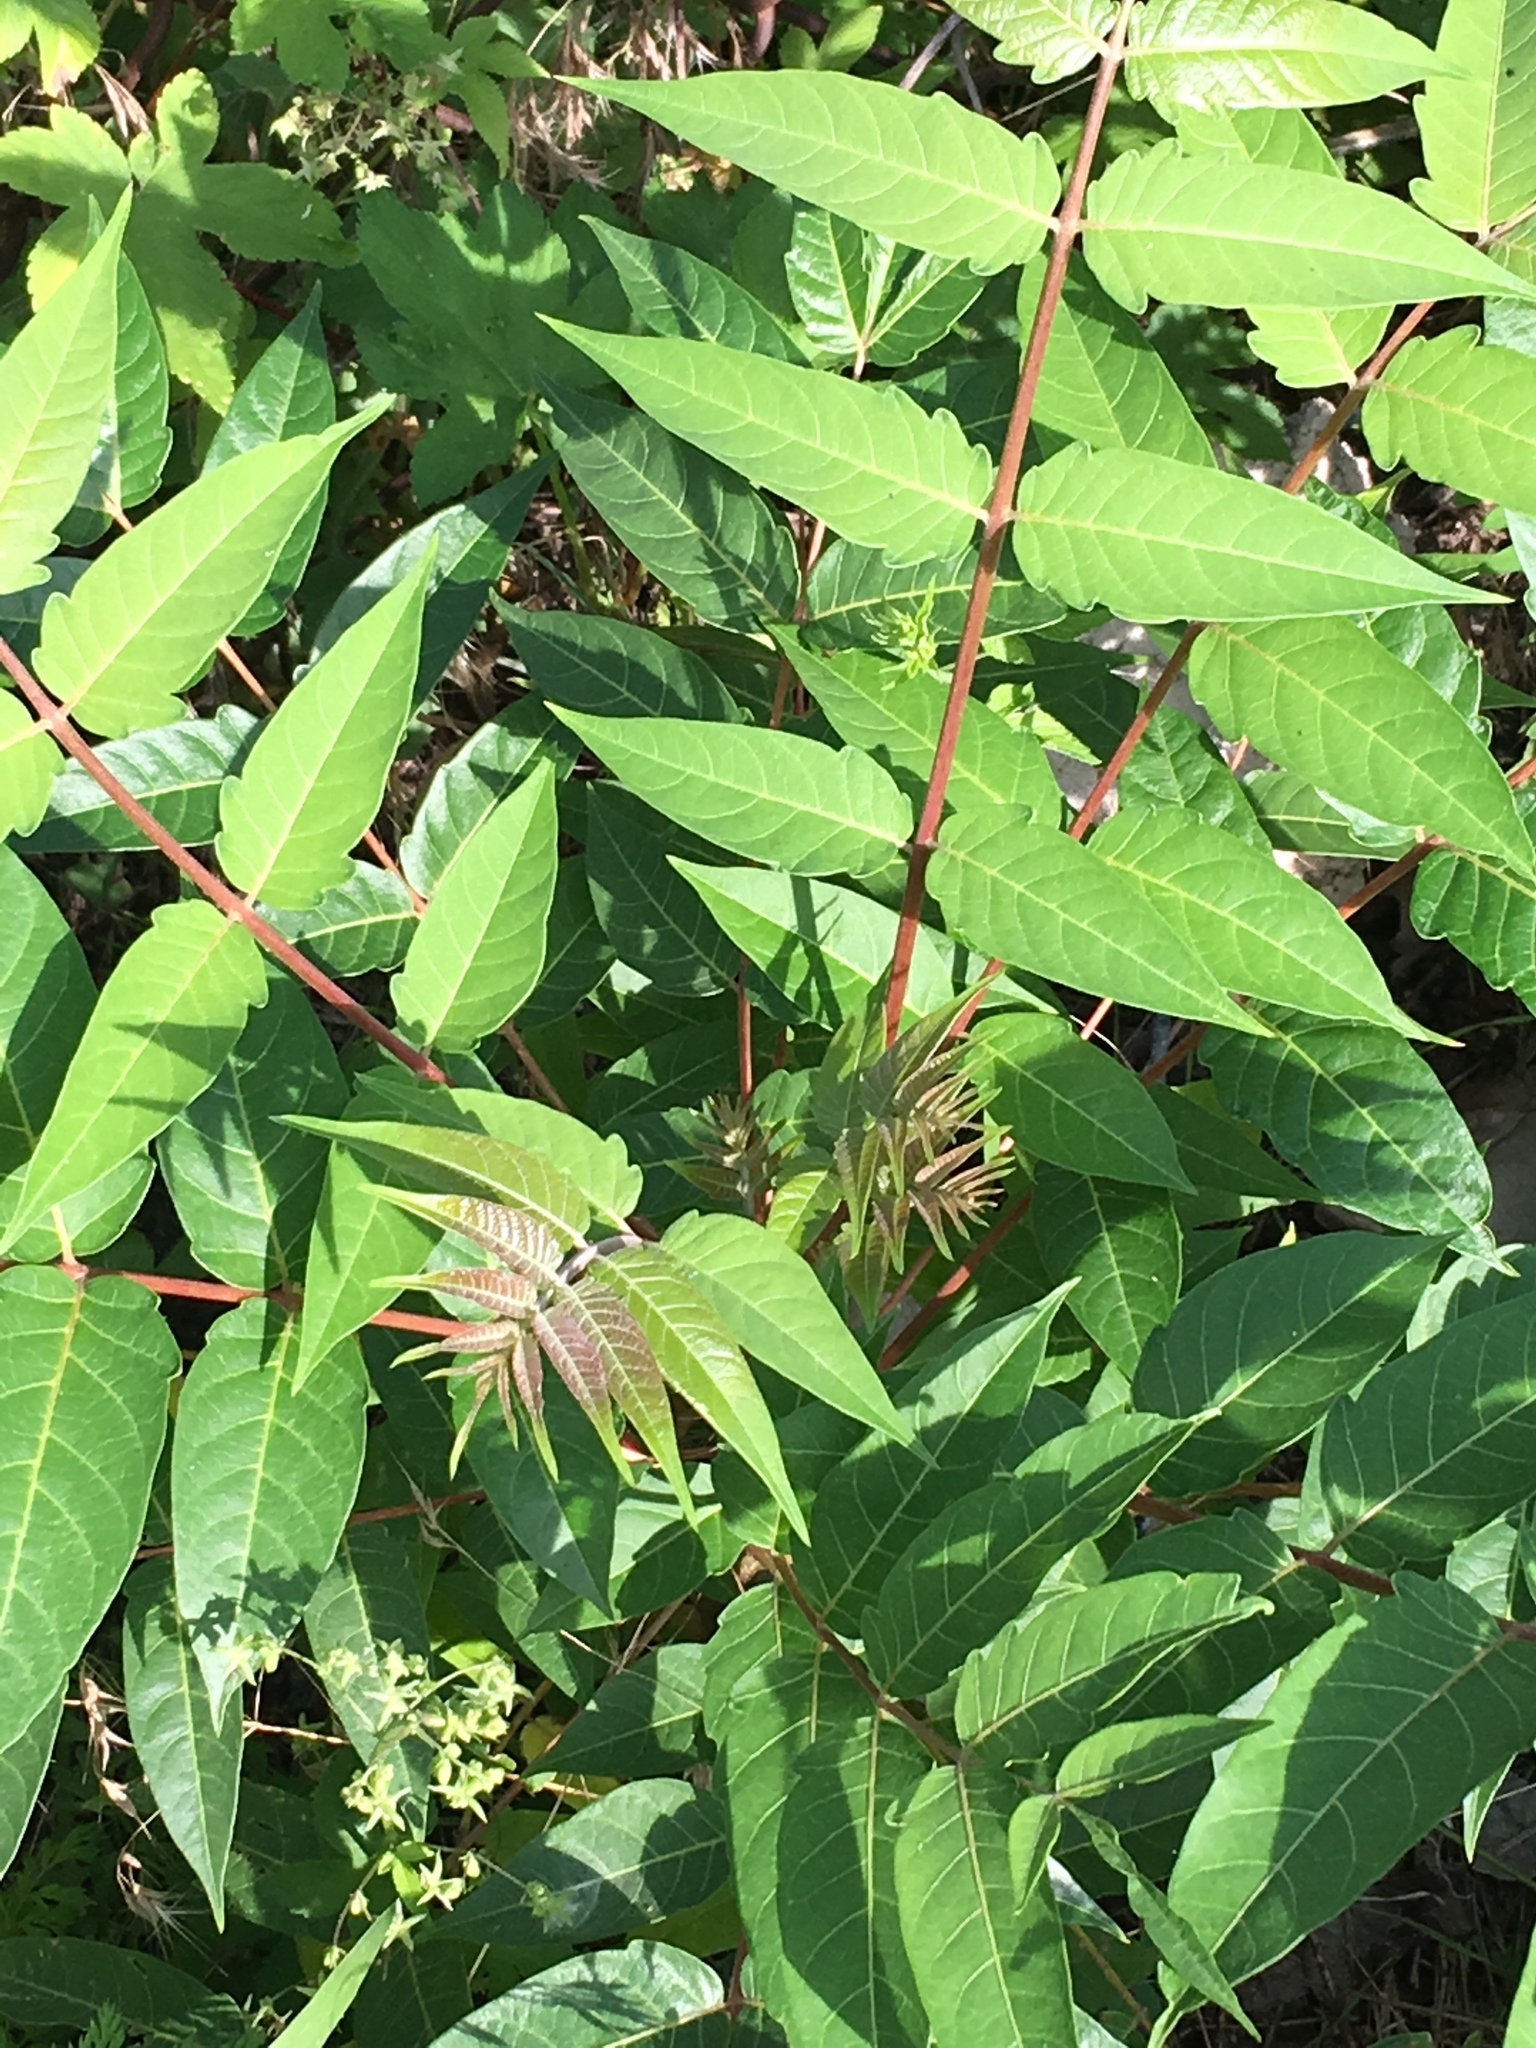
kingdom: Plantae
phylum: Tracheophyta
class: Magnoliopsida
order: Sapindales
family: Simaroubaceae
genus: Ailanthus
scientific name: Ailanthus altissima
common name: Tree-of-heaven
